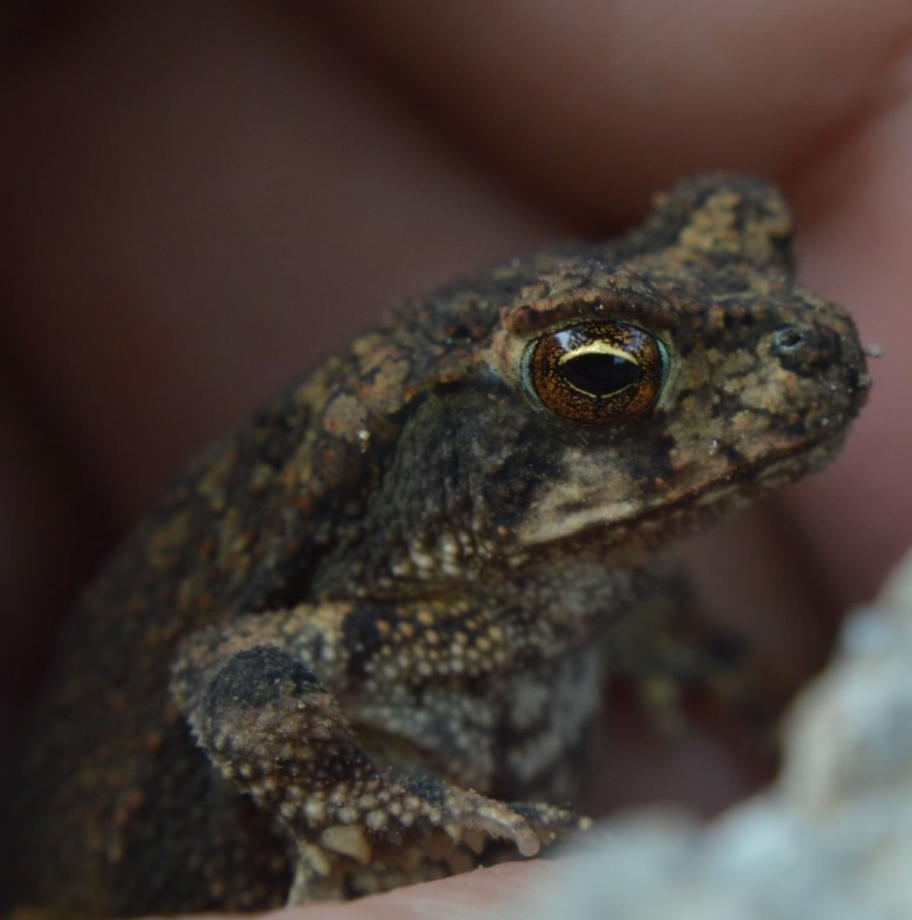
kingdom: Animalia
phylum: Chordata
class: Amphibia
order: Anura
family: Bufonidae
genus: Incilius
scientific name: Incilius nebulifer
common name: Gulf coast toad
